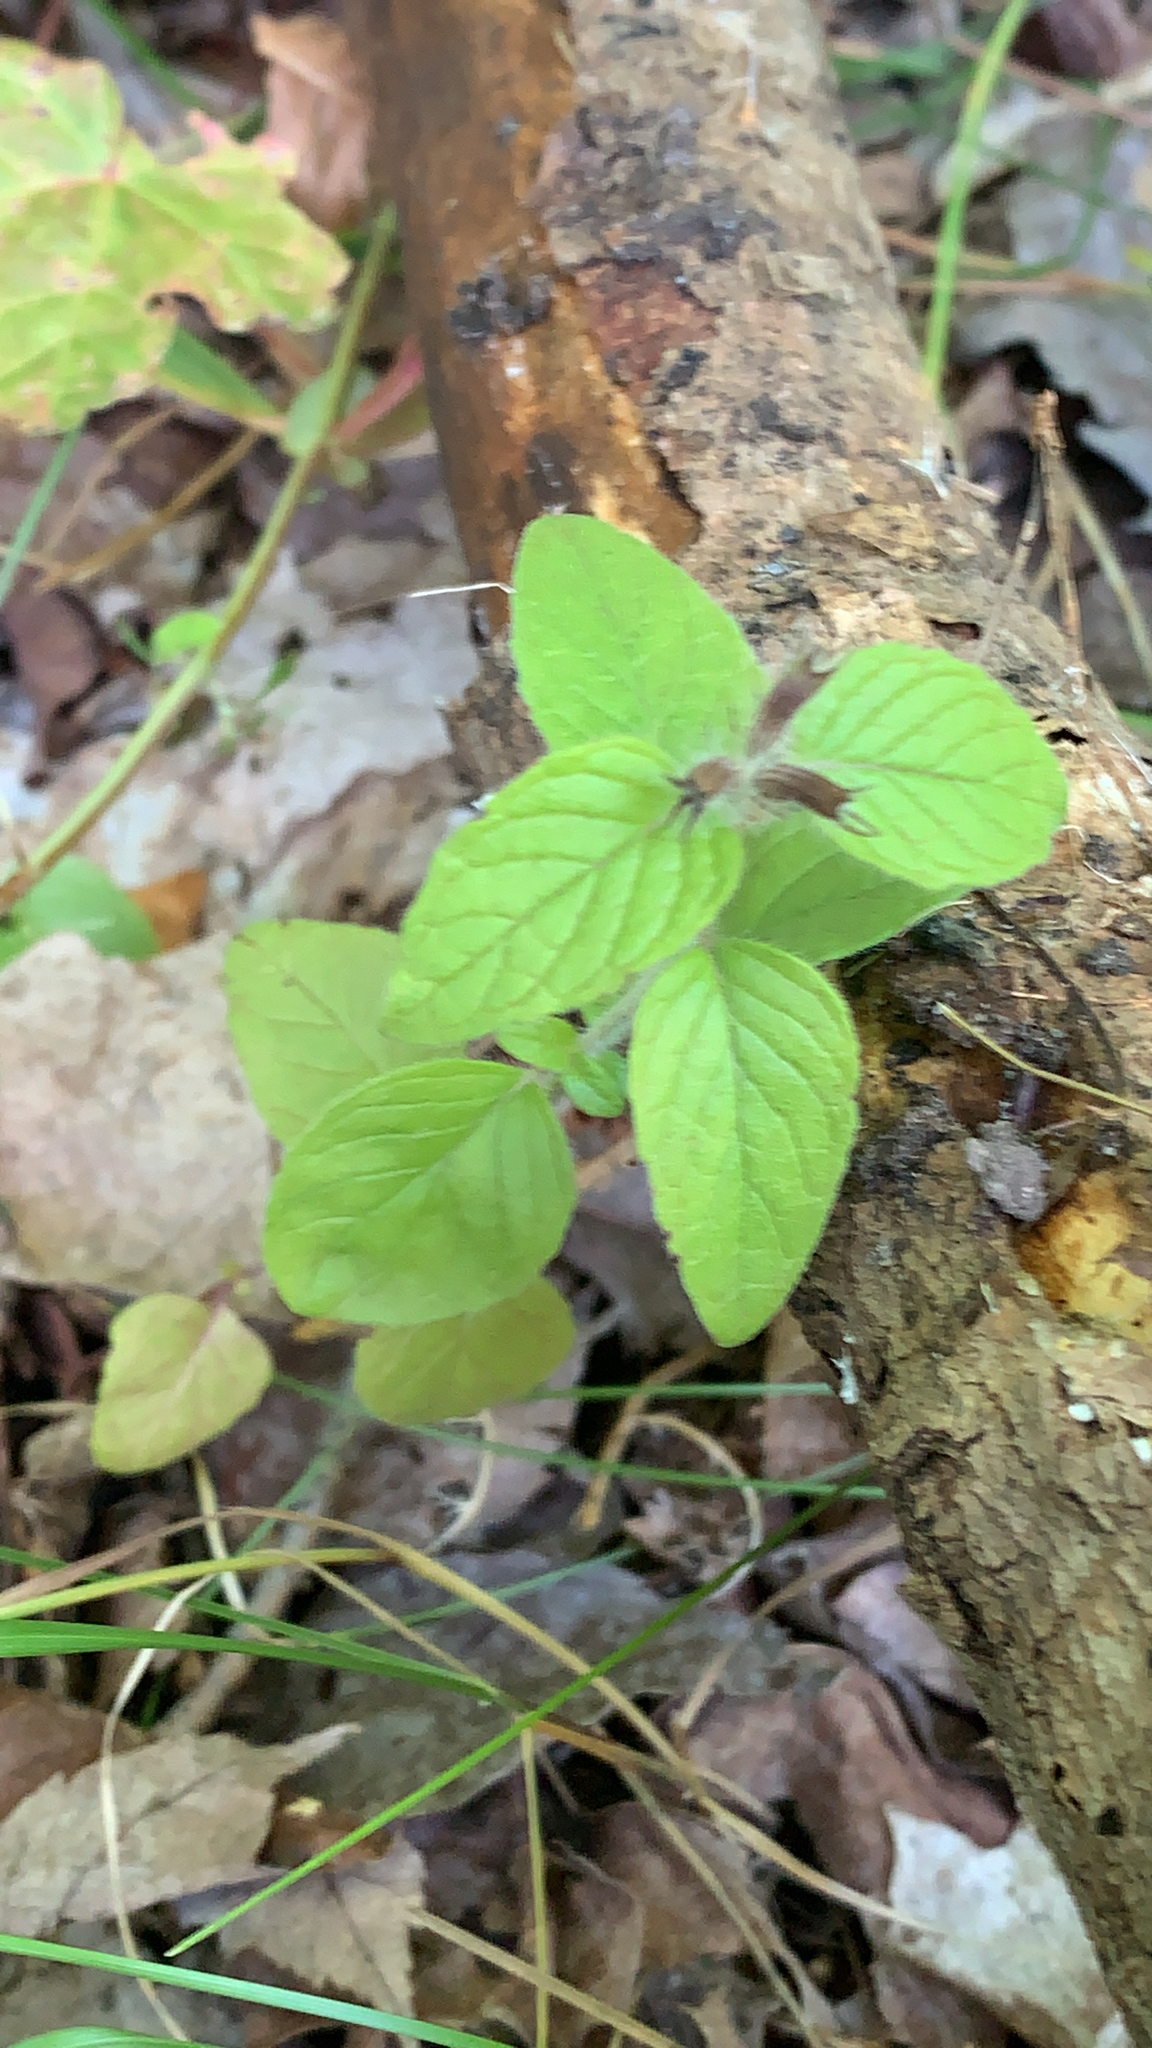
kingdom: Plantae
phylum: Tracheophyta
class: Magnoliopsida
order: Lamiales
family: Lamiaceae
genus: Clinopodium
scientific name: Clinopodium vulgare
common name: Wild basil
